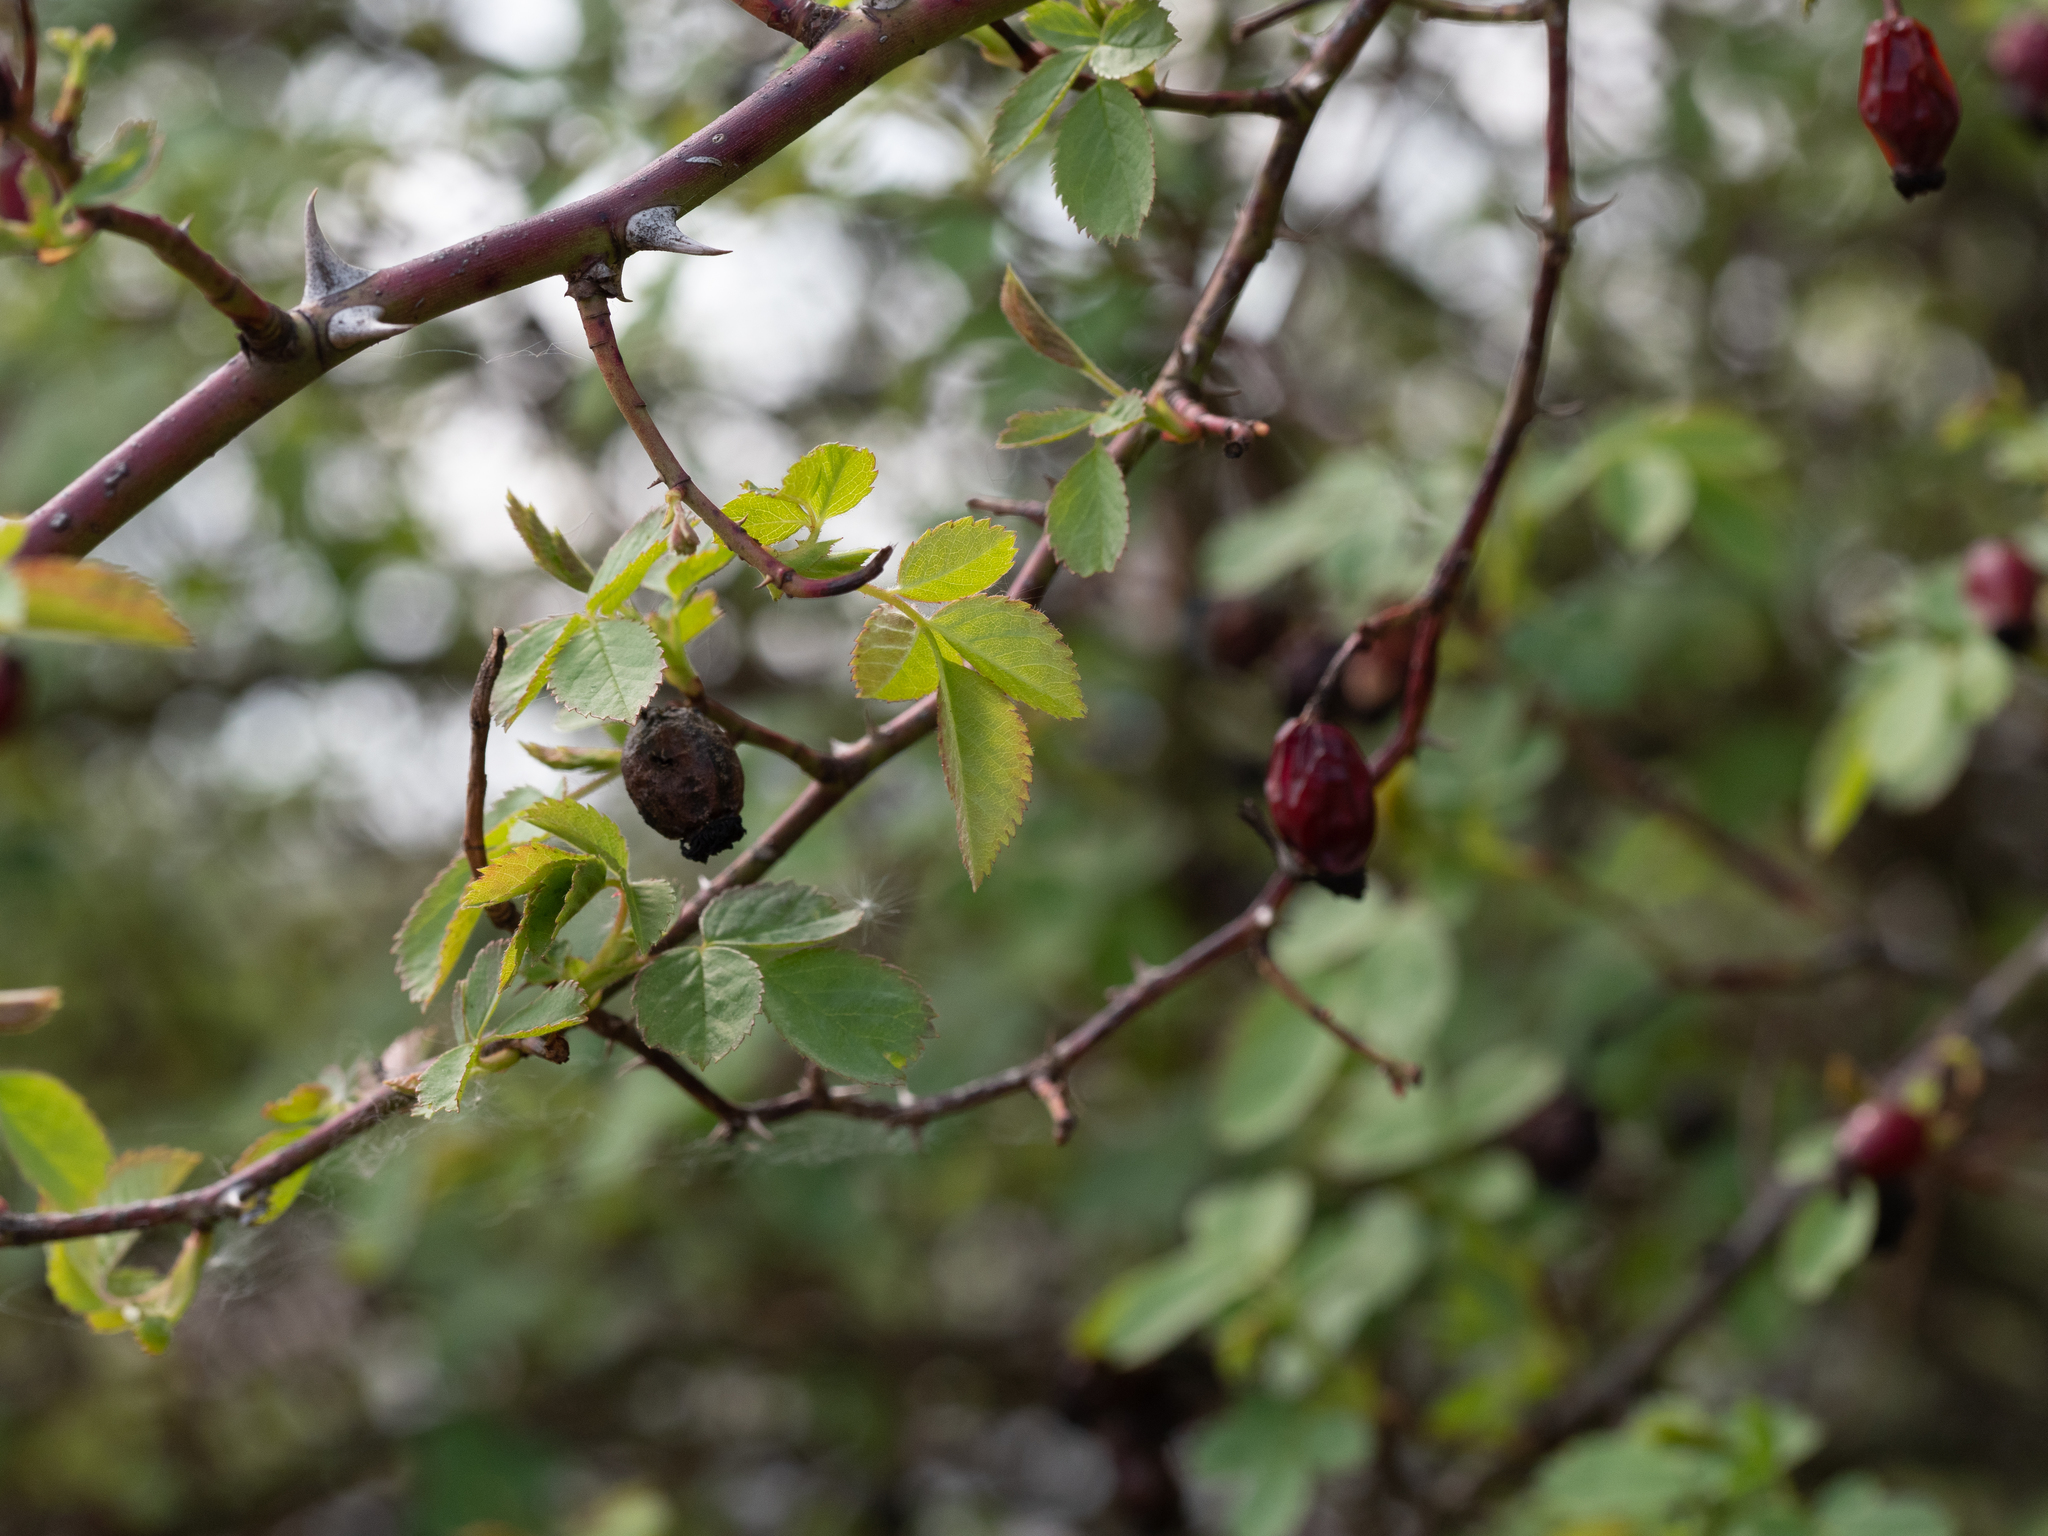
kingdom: Plantae
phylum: Tracheophyta
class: Magnoliopsida
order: Rosales
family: Rosaceae
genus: Rosa
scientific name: Rosa canina
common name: Dog rose
